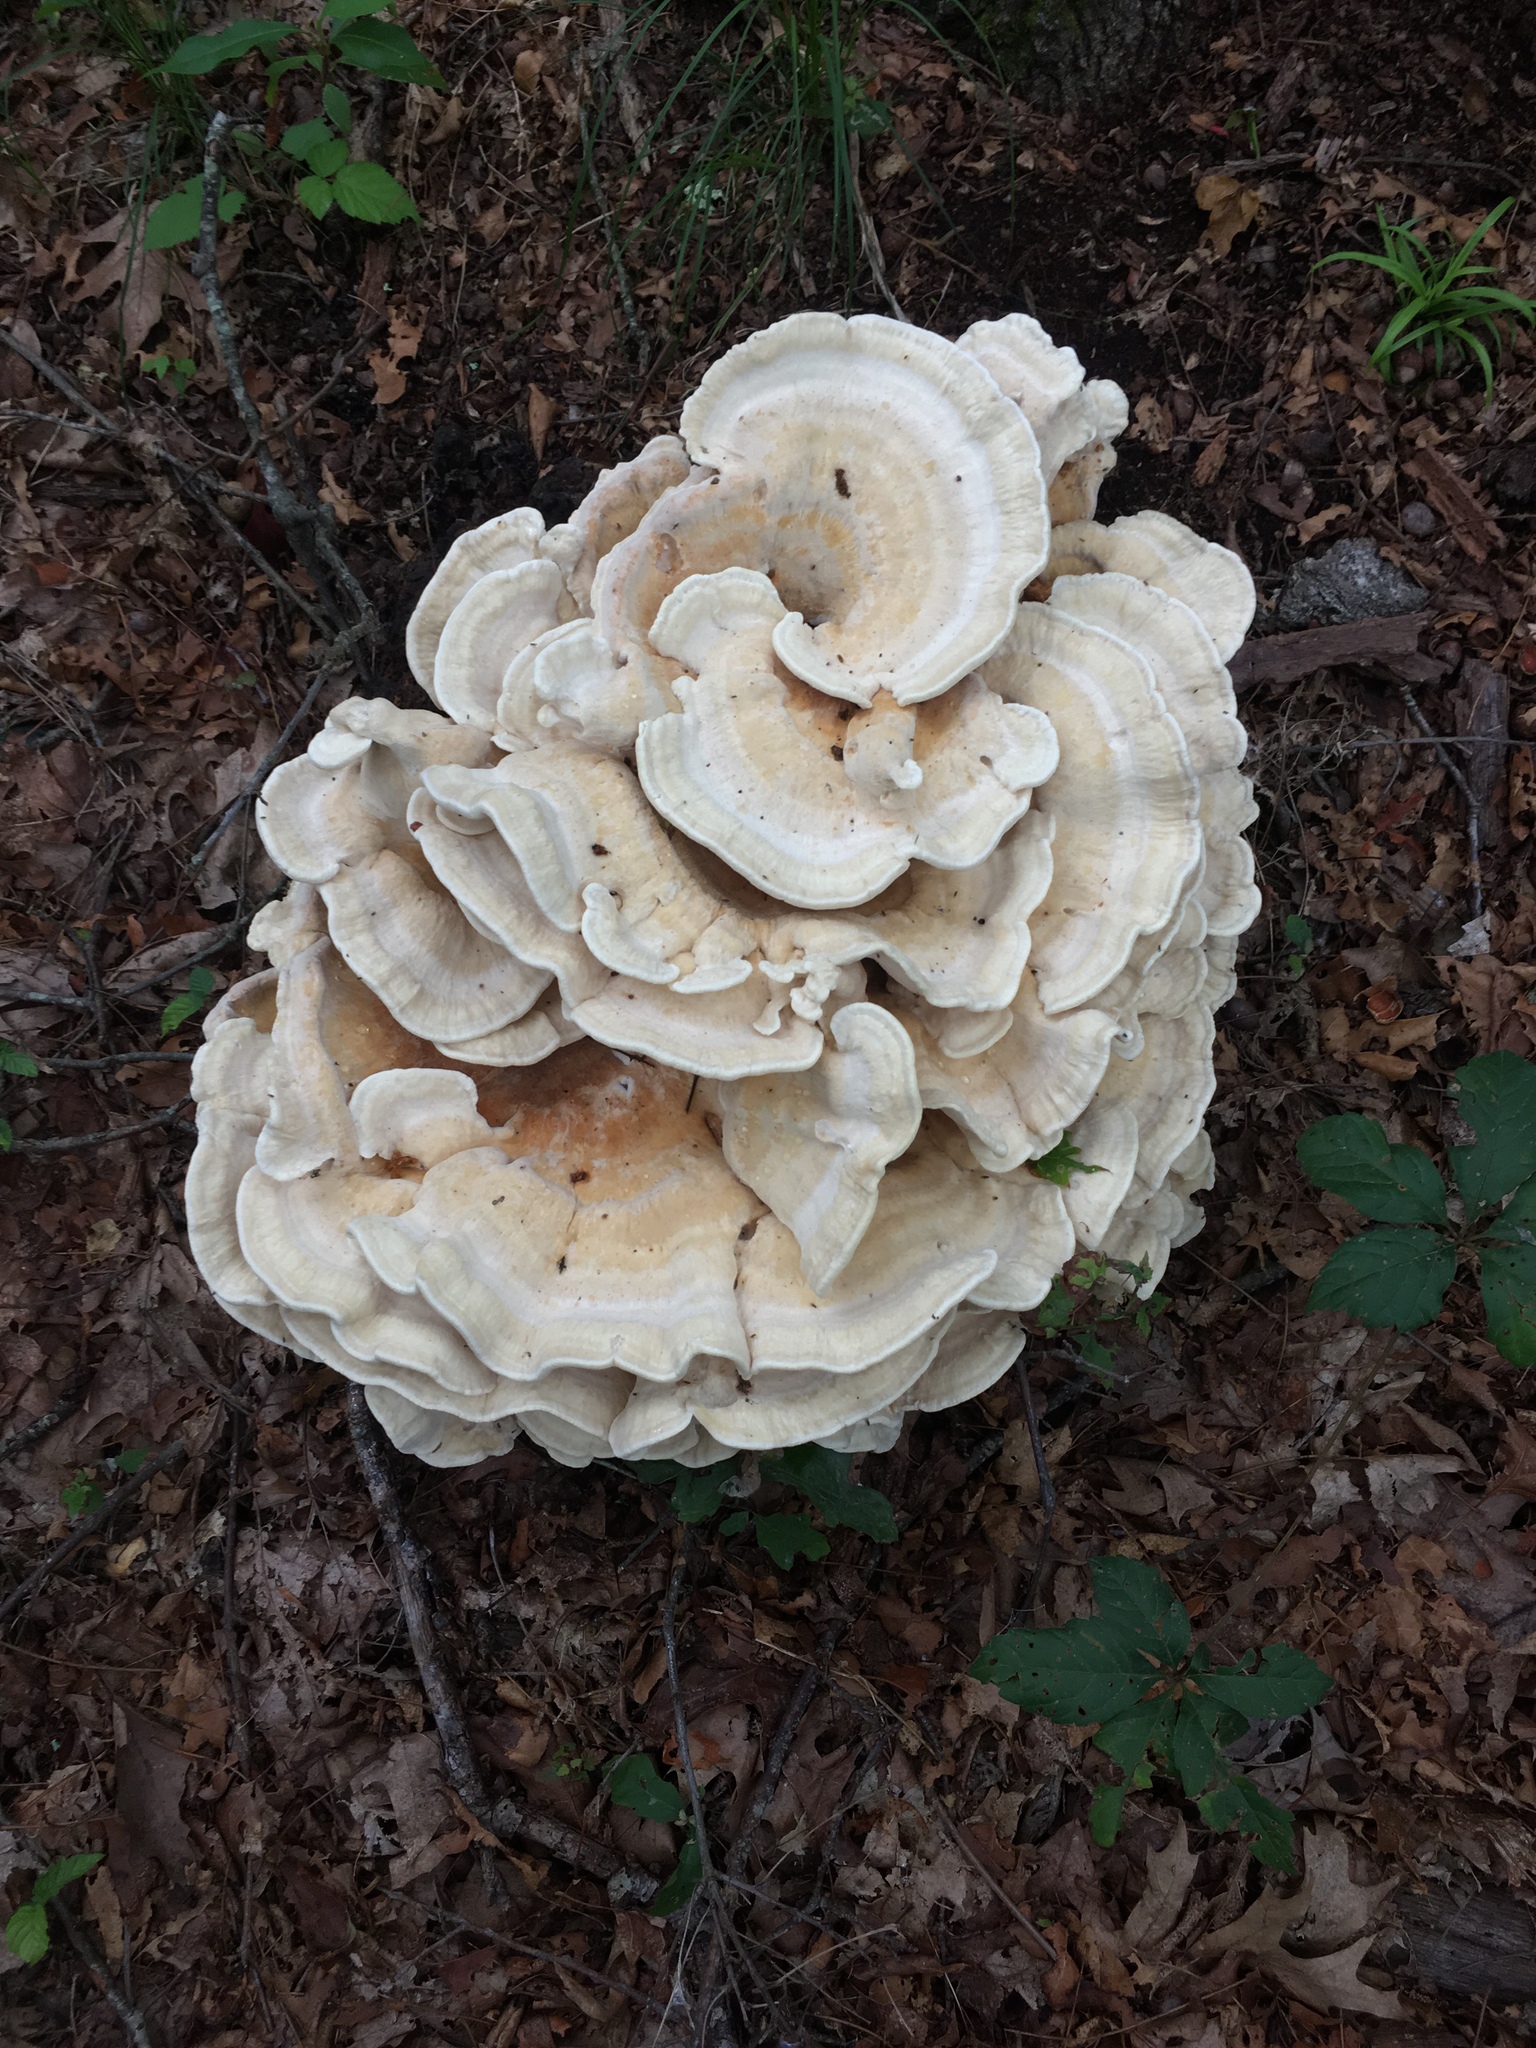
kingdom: Fungi
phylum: Basidiomycota
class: Agaricomycetes
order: Russulales
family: Bondarzewiaceae
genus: Bondarzewia
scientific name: Bondarzewia berkeleyi
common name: Berkeley's polypore
